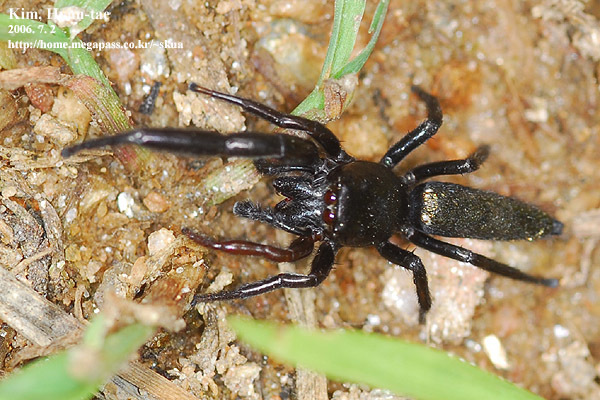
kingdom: Animalia
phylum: Arthropoda
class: Arachnida
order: Araneae
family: Salticidae
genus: Mendoza
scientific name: Mendoza canestrinii
